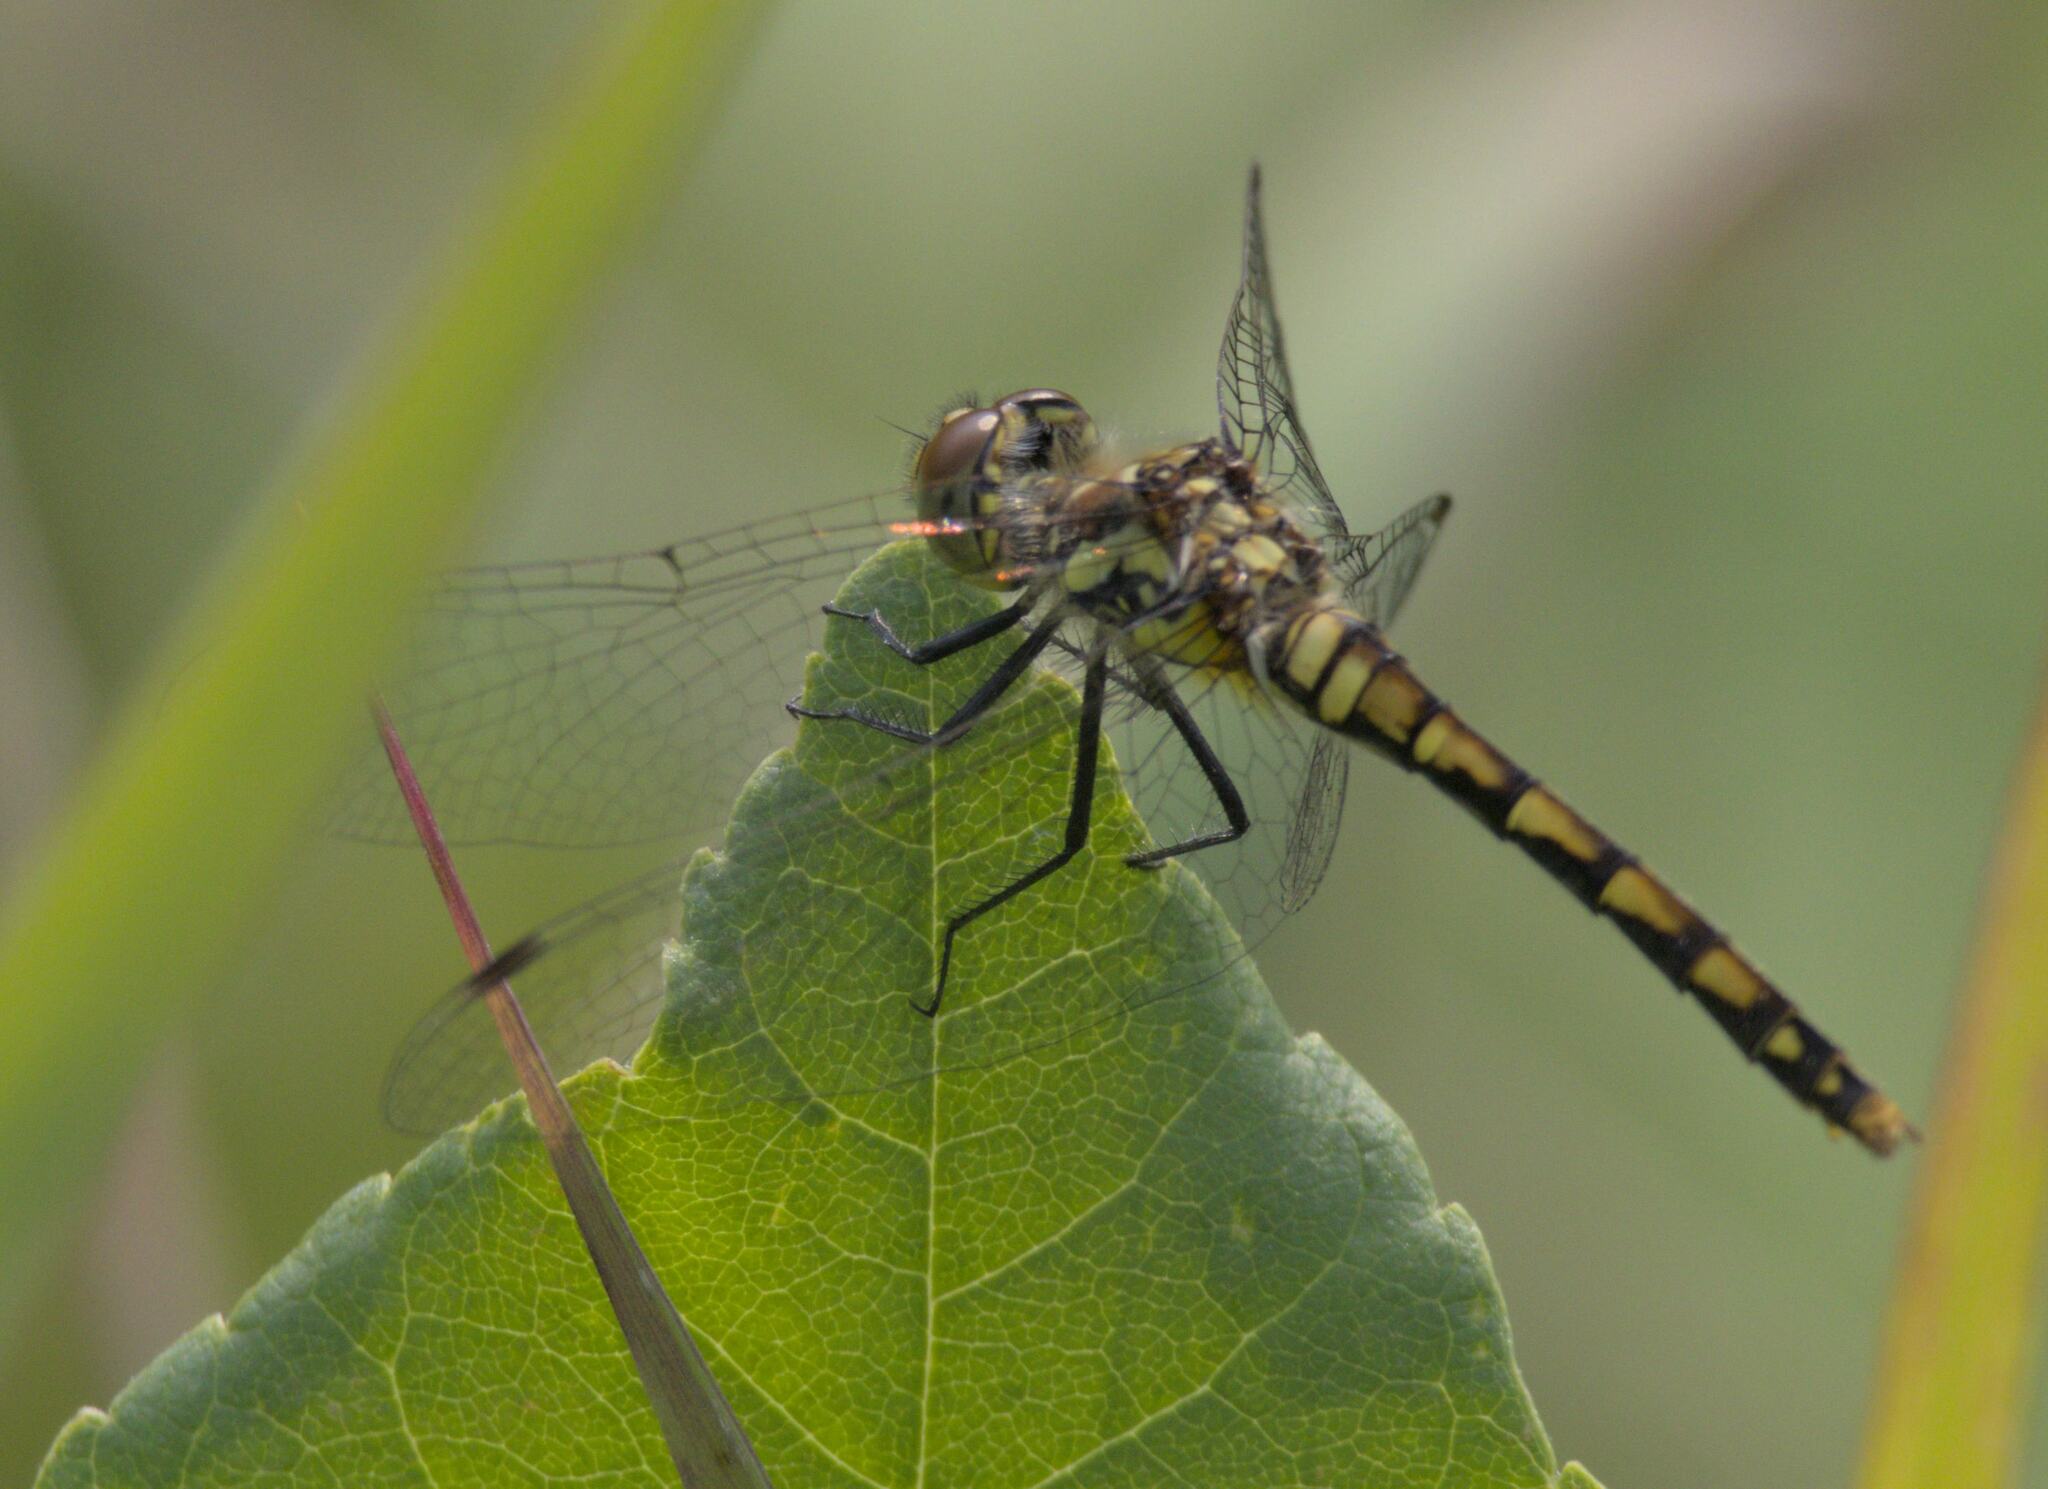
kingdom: Animalia
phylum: Arthropoda
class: Insecta
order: Odonata
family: Libellulidae
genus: Sympetrum
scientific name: Sympetrum danae
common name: Black darter
